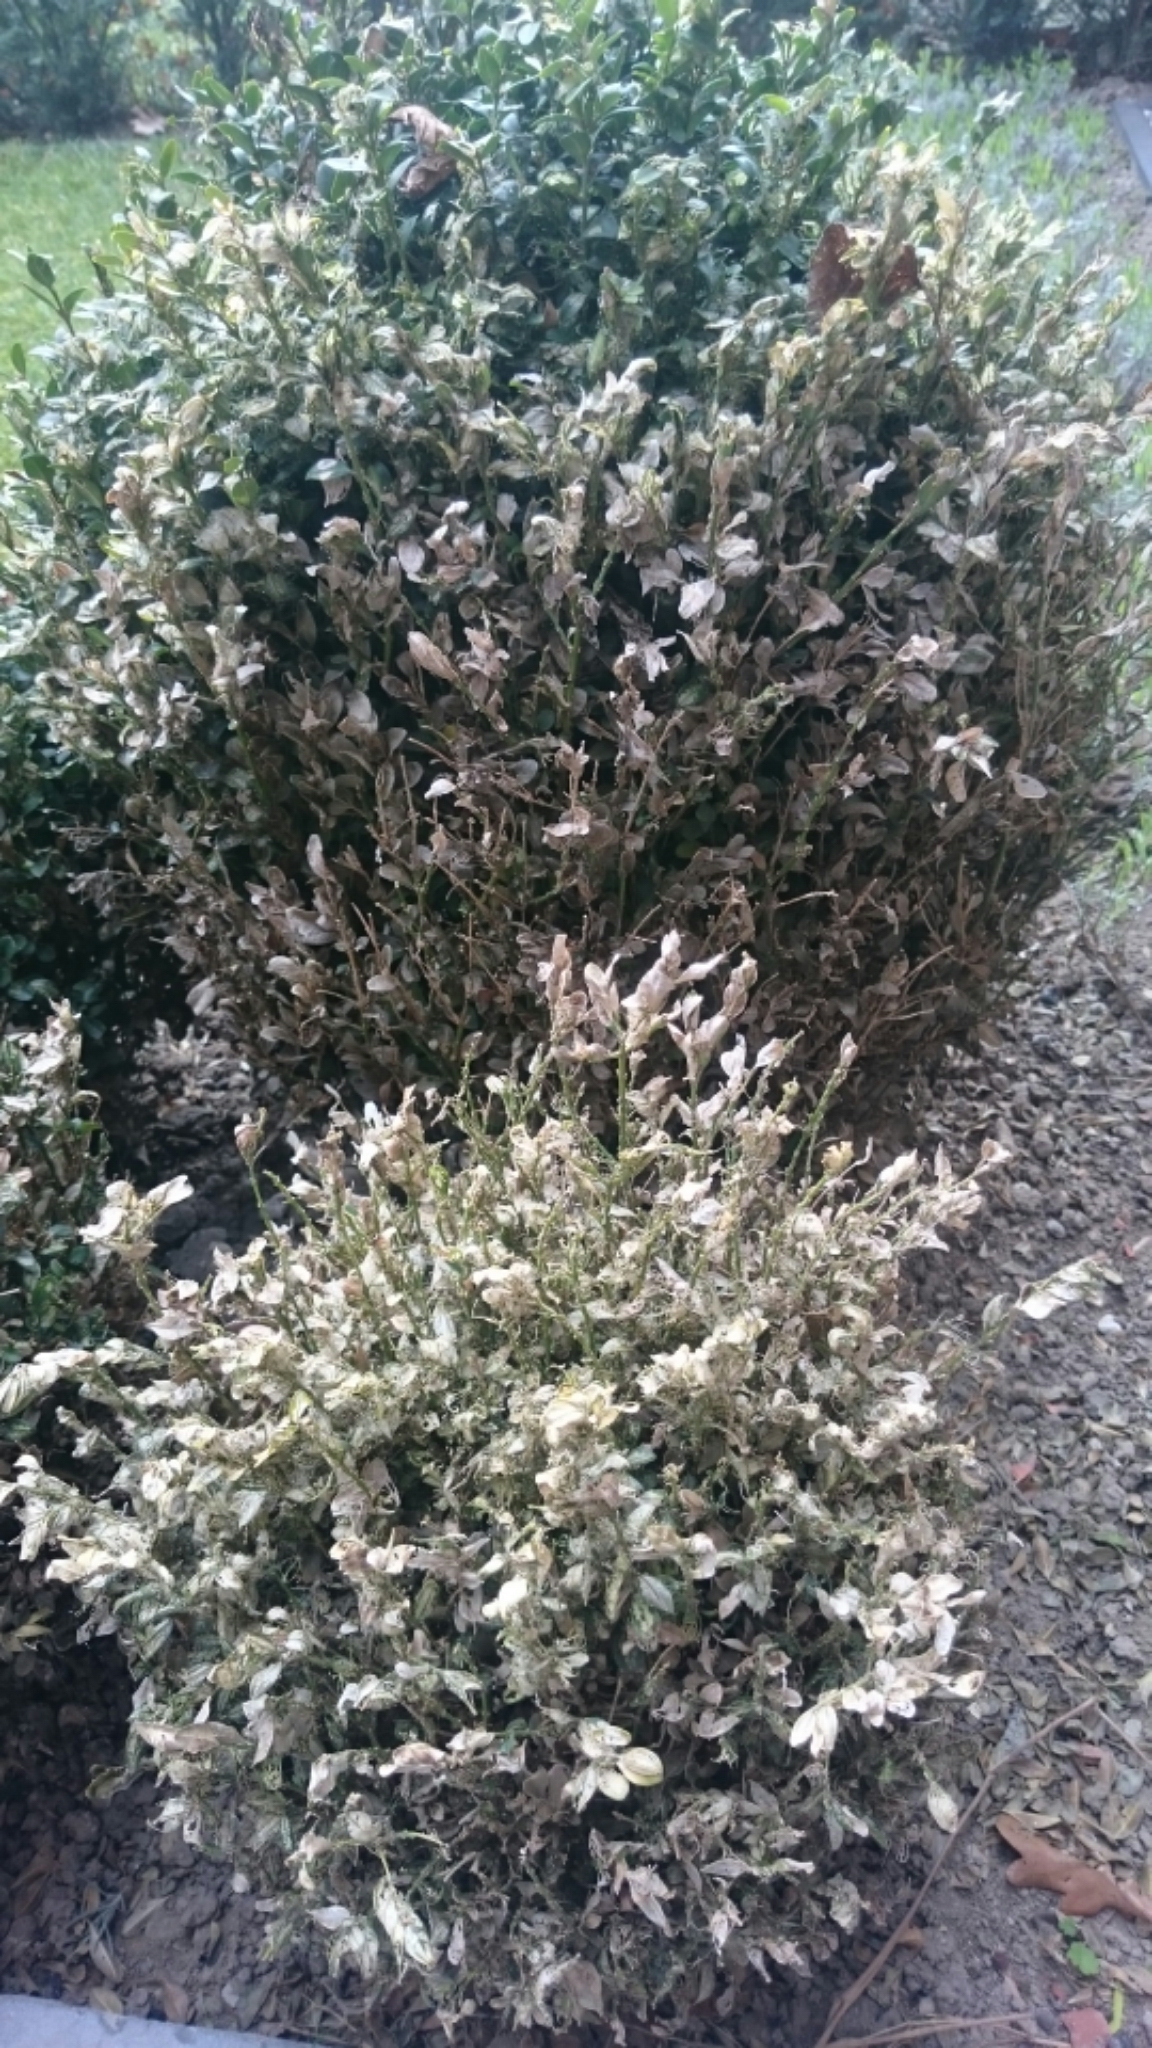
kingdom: Animalia
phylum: Arthropoda
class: Insecta
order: Lepidoptera
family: Crambidae
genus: Cydalima
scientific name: Cydalima perspectalis
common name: Box tree moth
